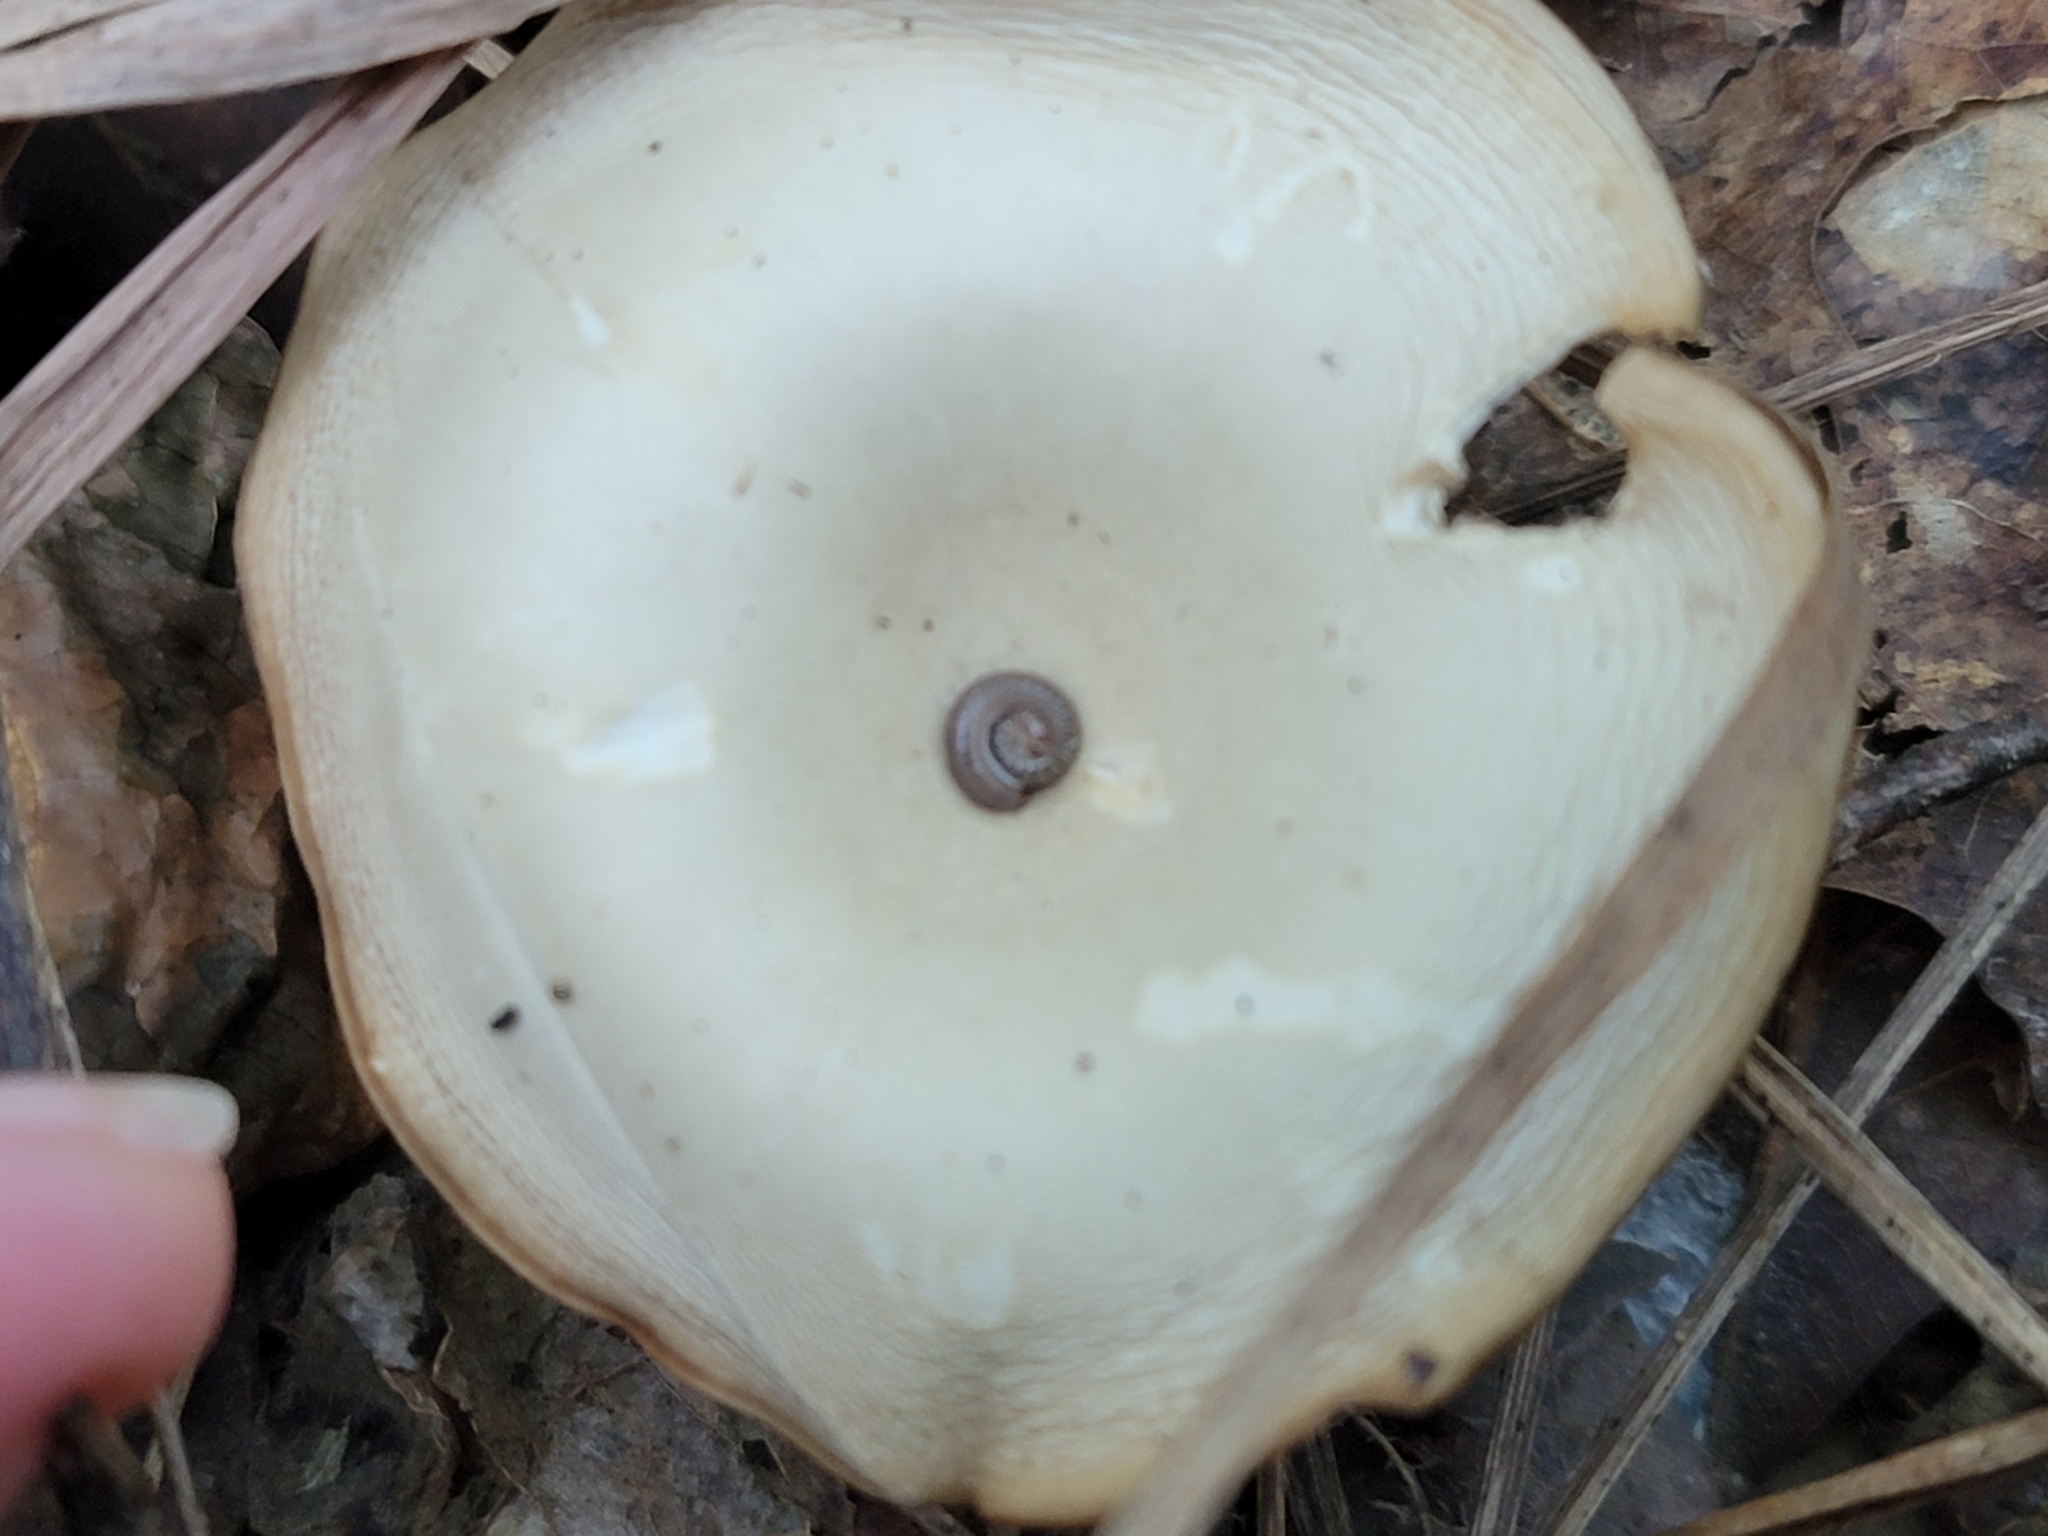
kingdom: Fungi
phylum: Basidiomycota
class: Agaricomycetes
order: Agaricales
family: Tricholomataceae
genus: Infundibulicybe
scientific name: Infundibulicybe gibba
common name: Common funnel
